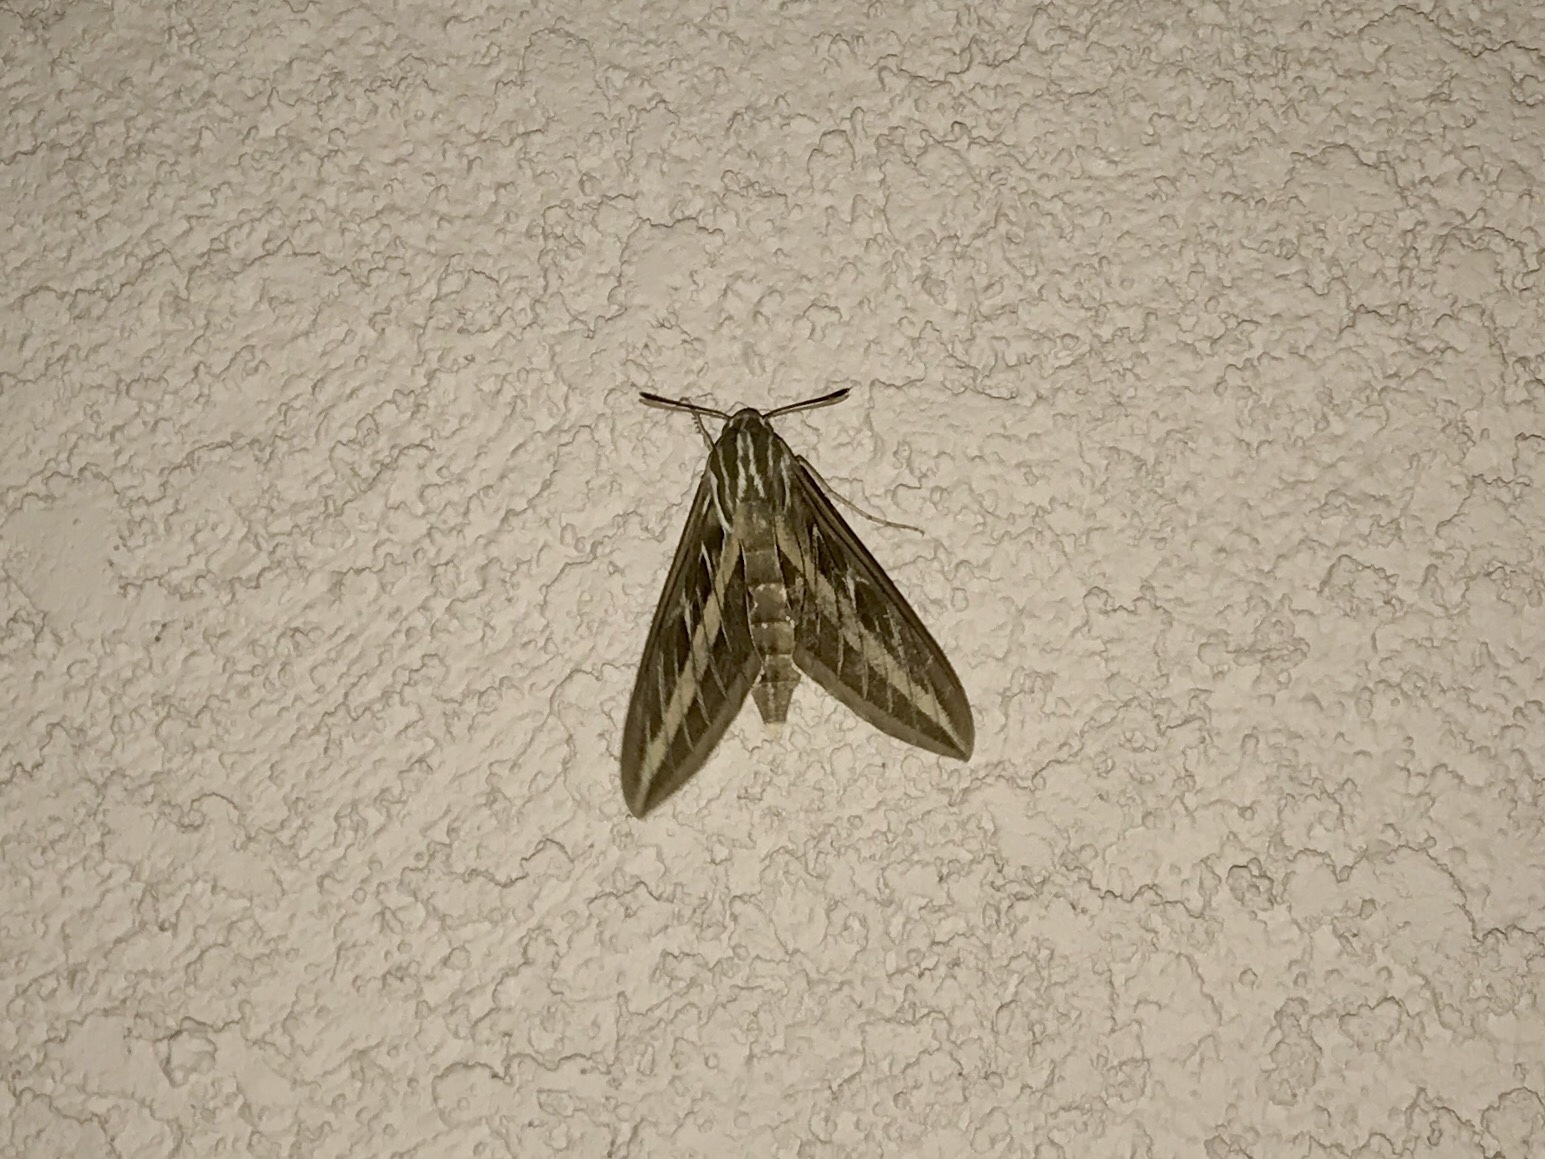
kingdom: Animalia
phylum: Arthropoda
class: Insecta
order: Lepidoptera
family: Sphingidae
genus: Hyles
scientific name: Hyles lineata
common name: White-lined sphinx
